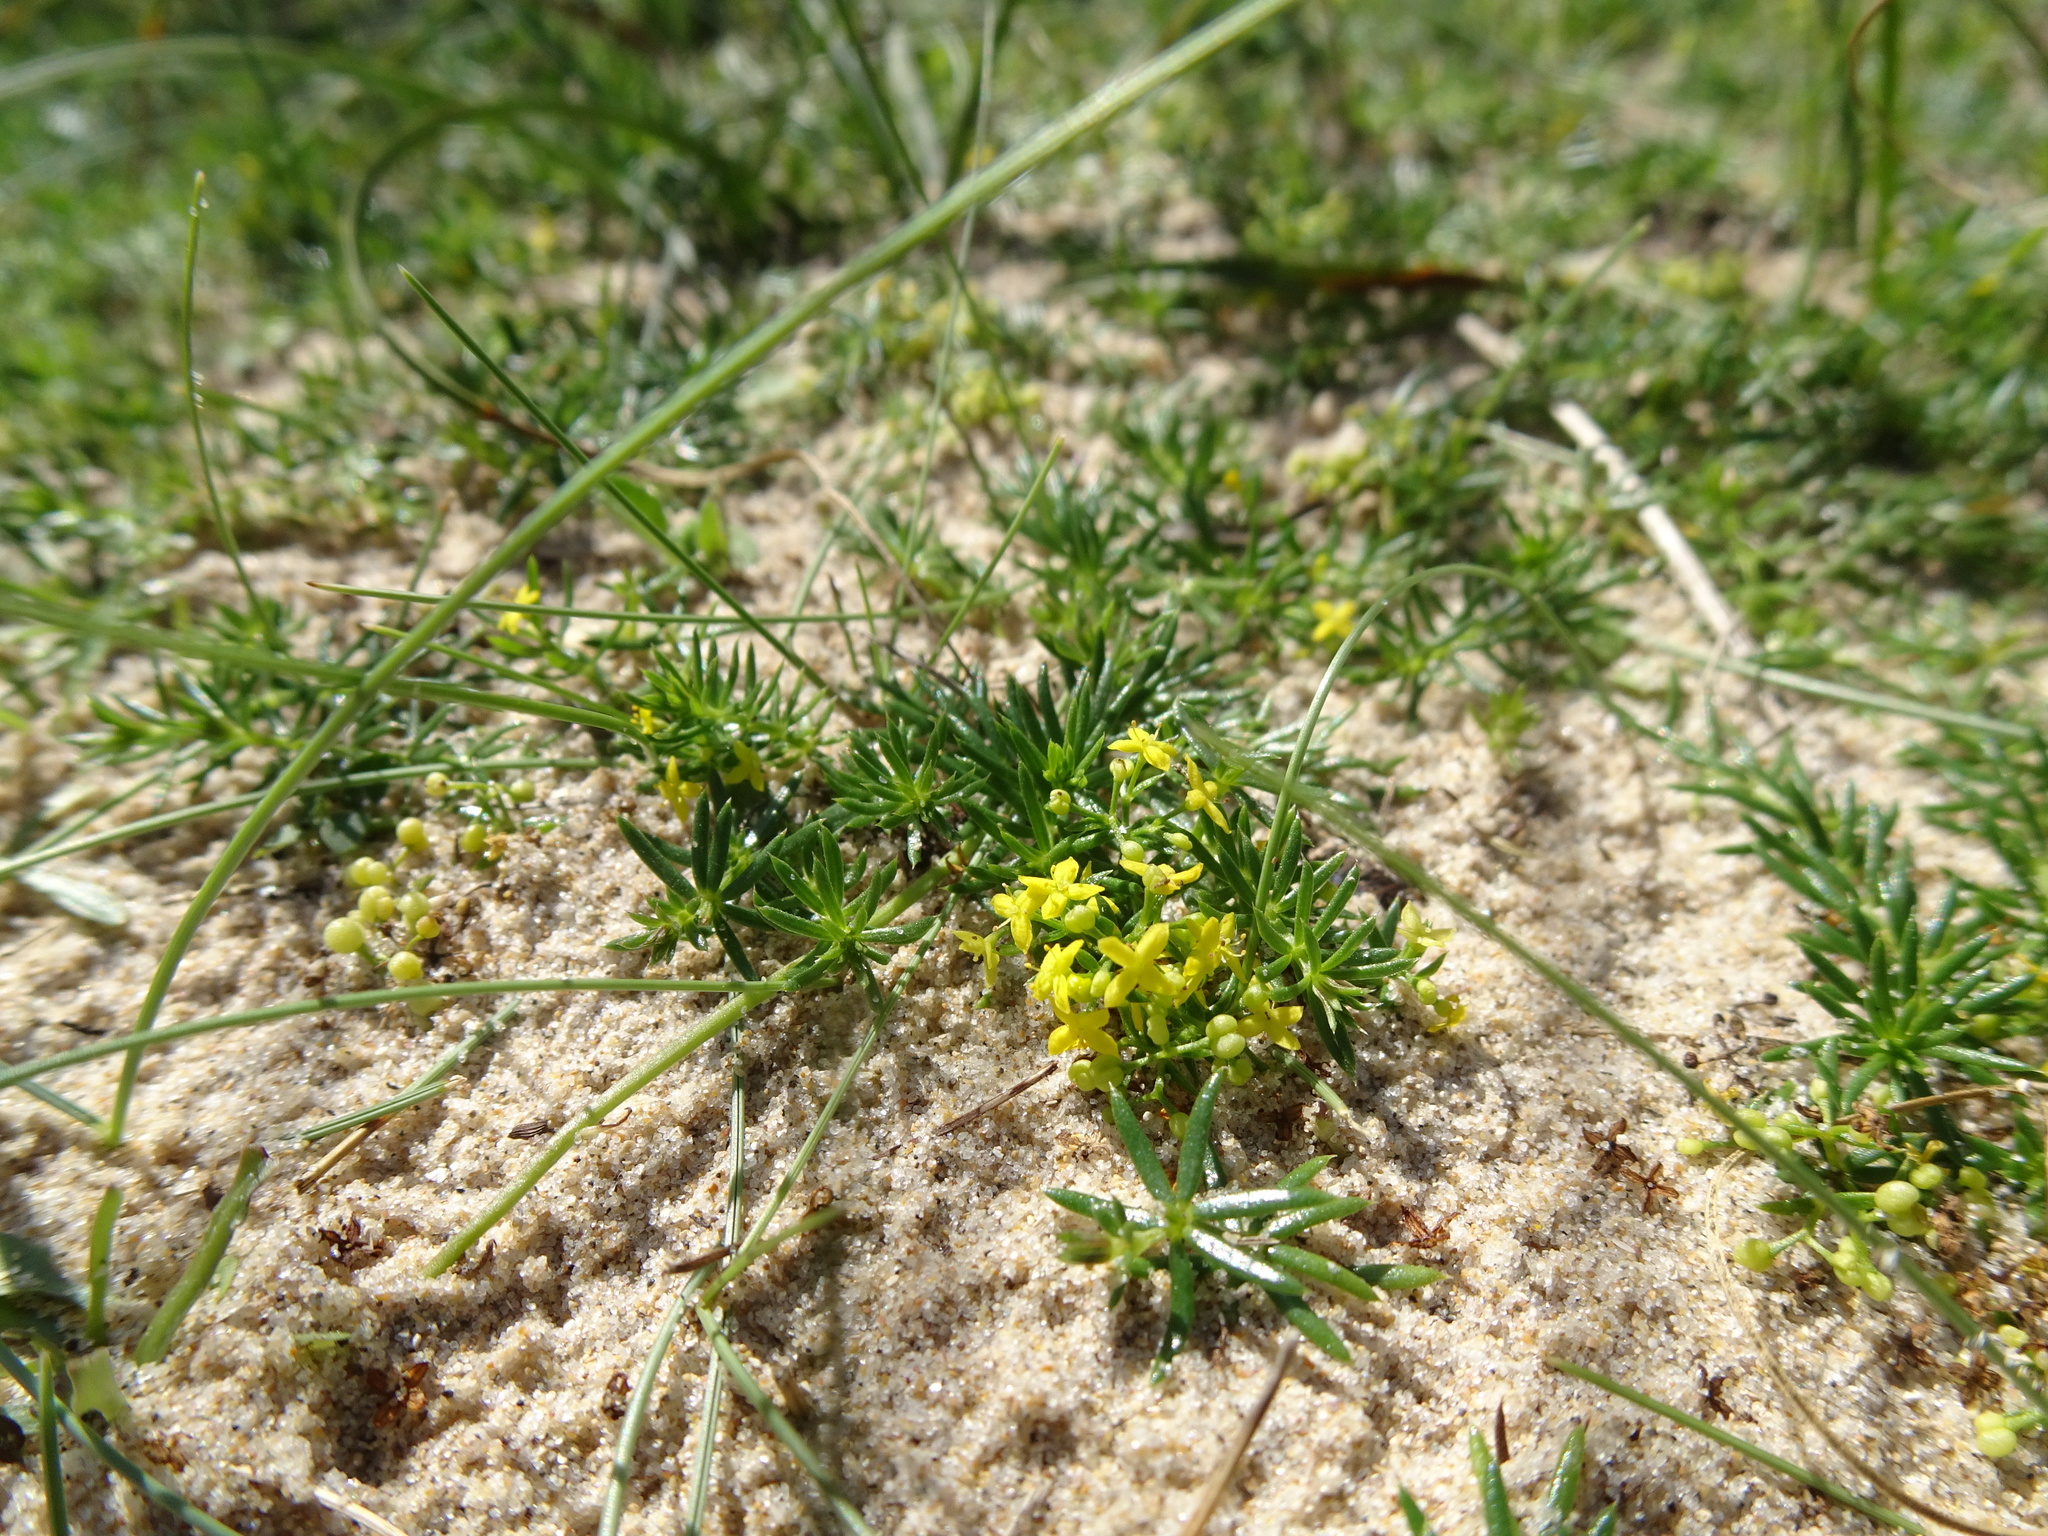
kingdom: Plantae
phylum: Tracheophyta
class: Magnoliopsida
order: Gentianales
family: Rubiaceae
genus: Galium
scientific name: Galium arenarium
